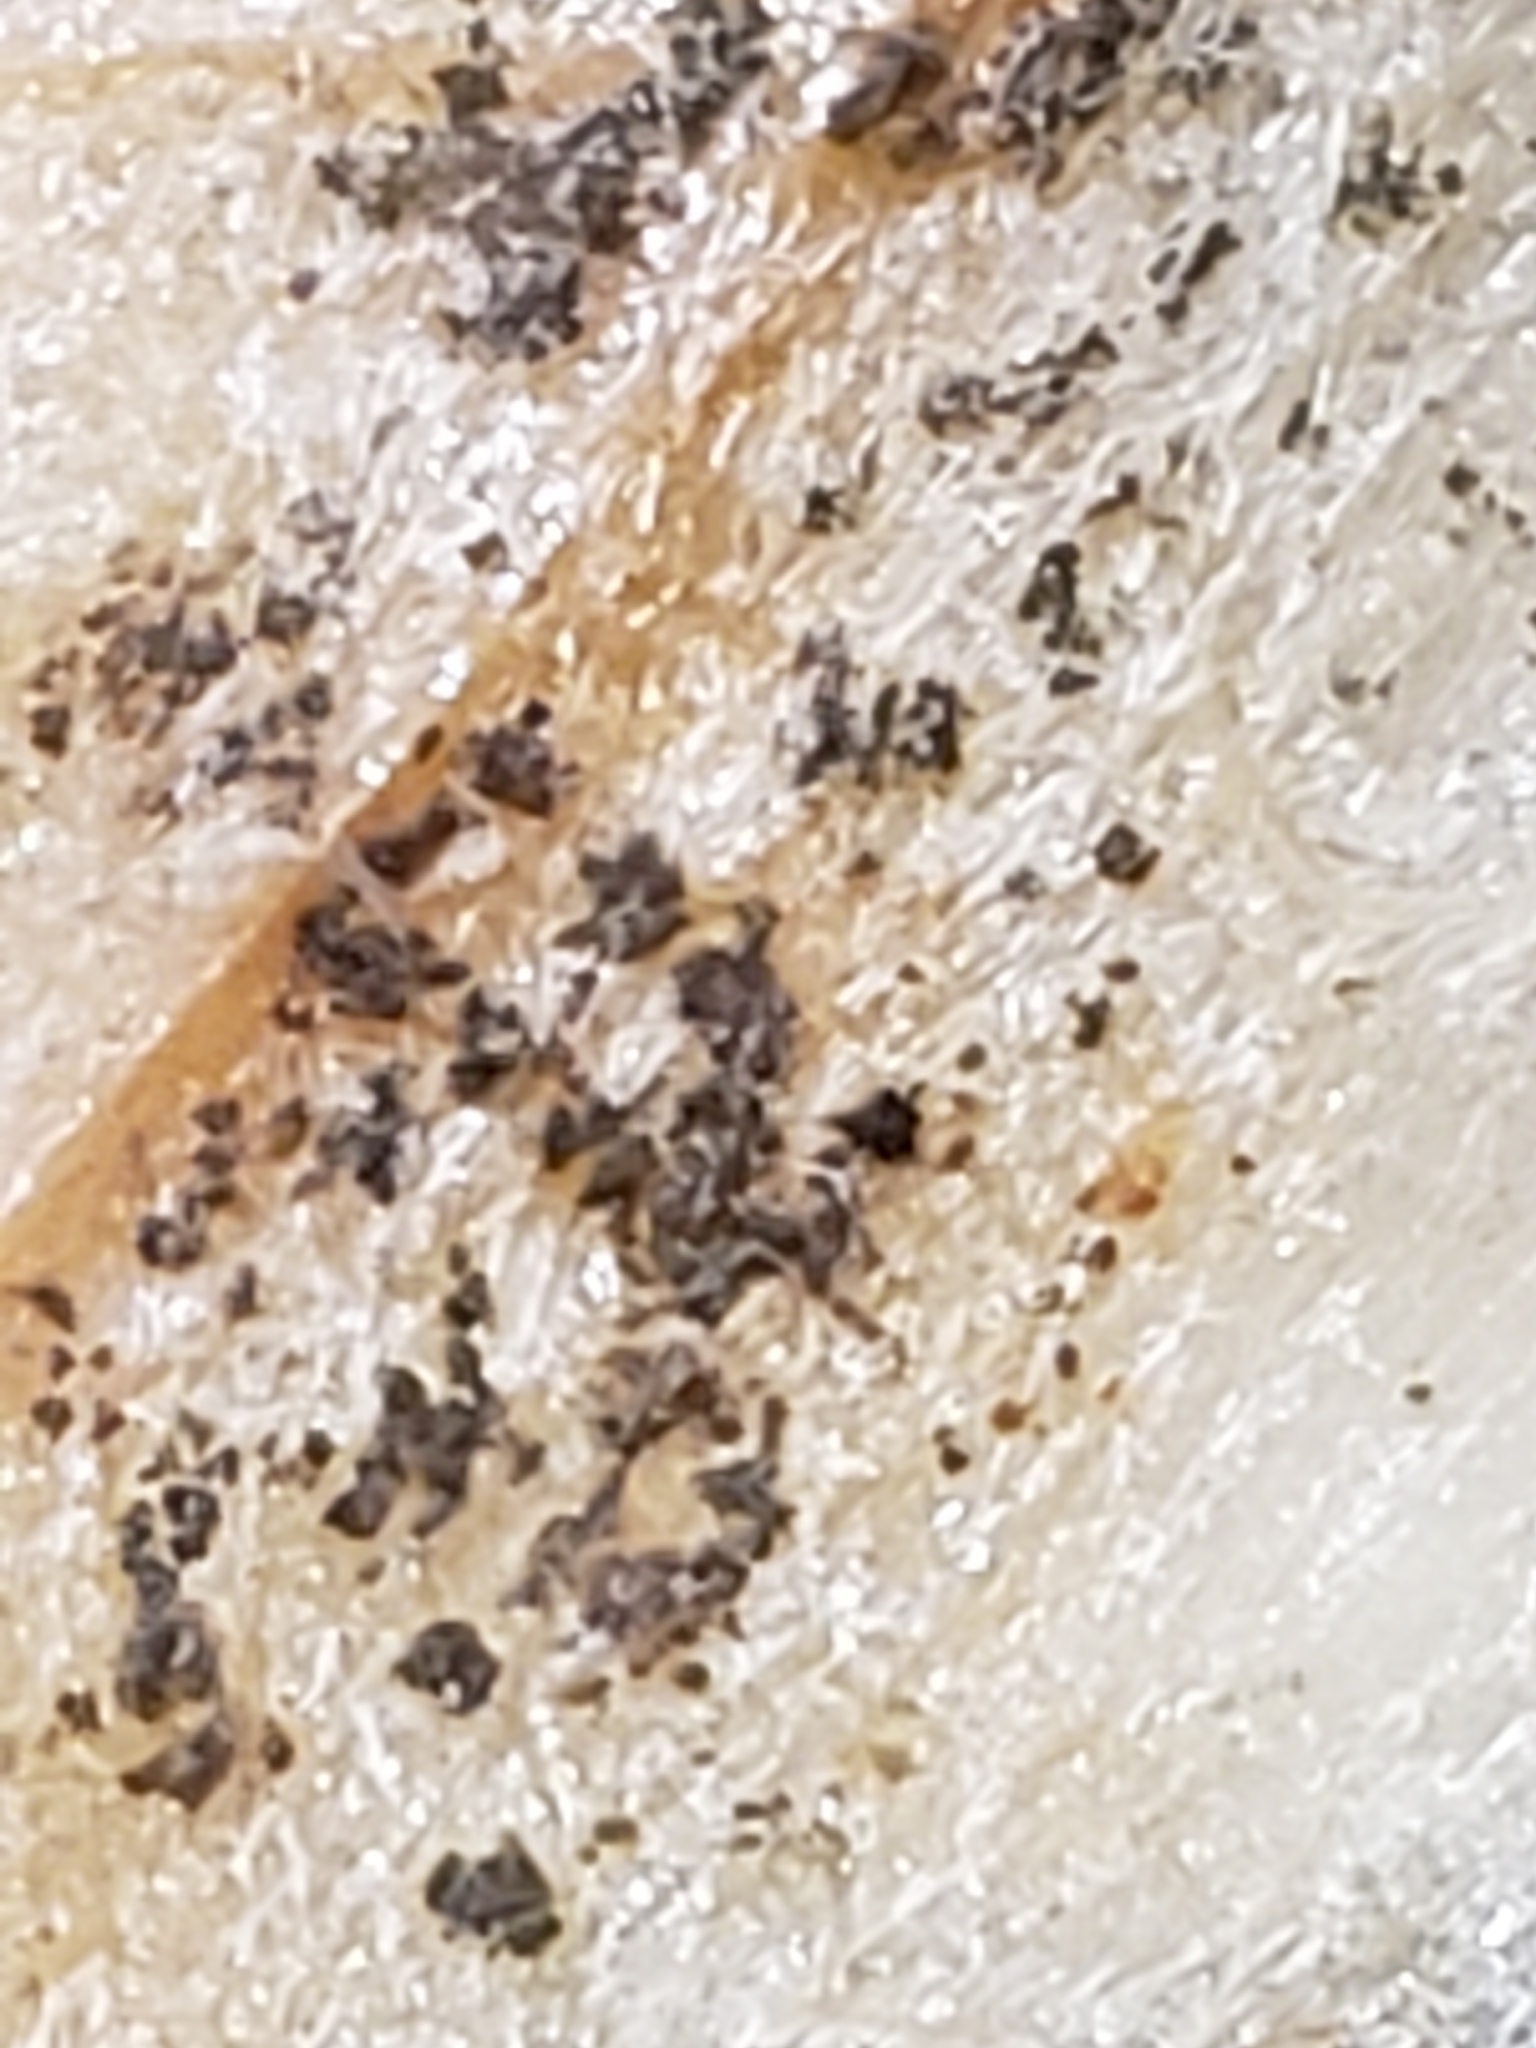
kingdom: Fungi
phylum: Ascomycota
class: Eurotiomycetes
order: Eurotiales
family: Aspergillaceae
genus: Aspergillus
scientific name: Aspergillus niger
